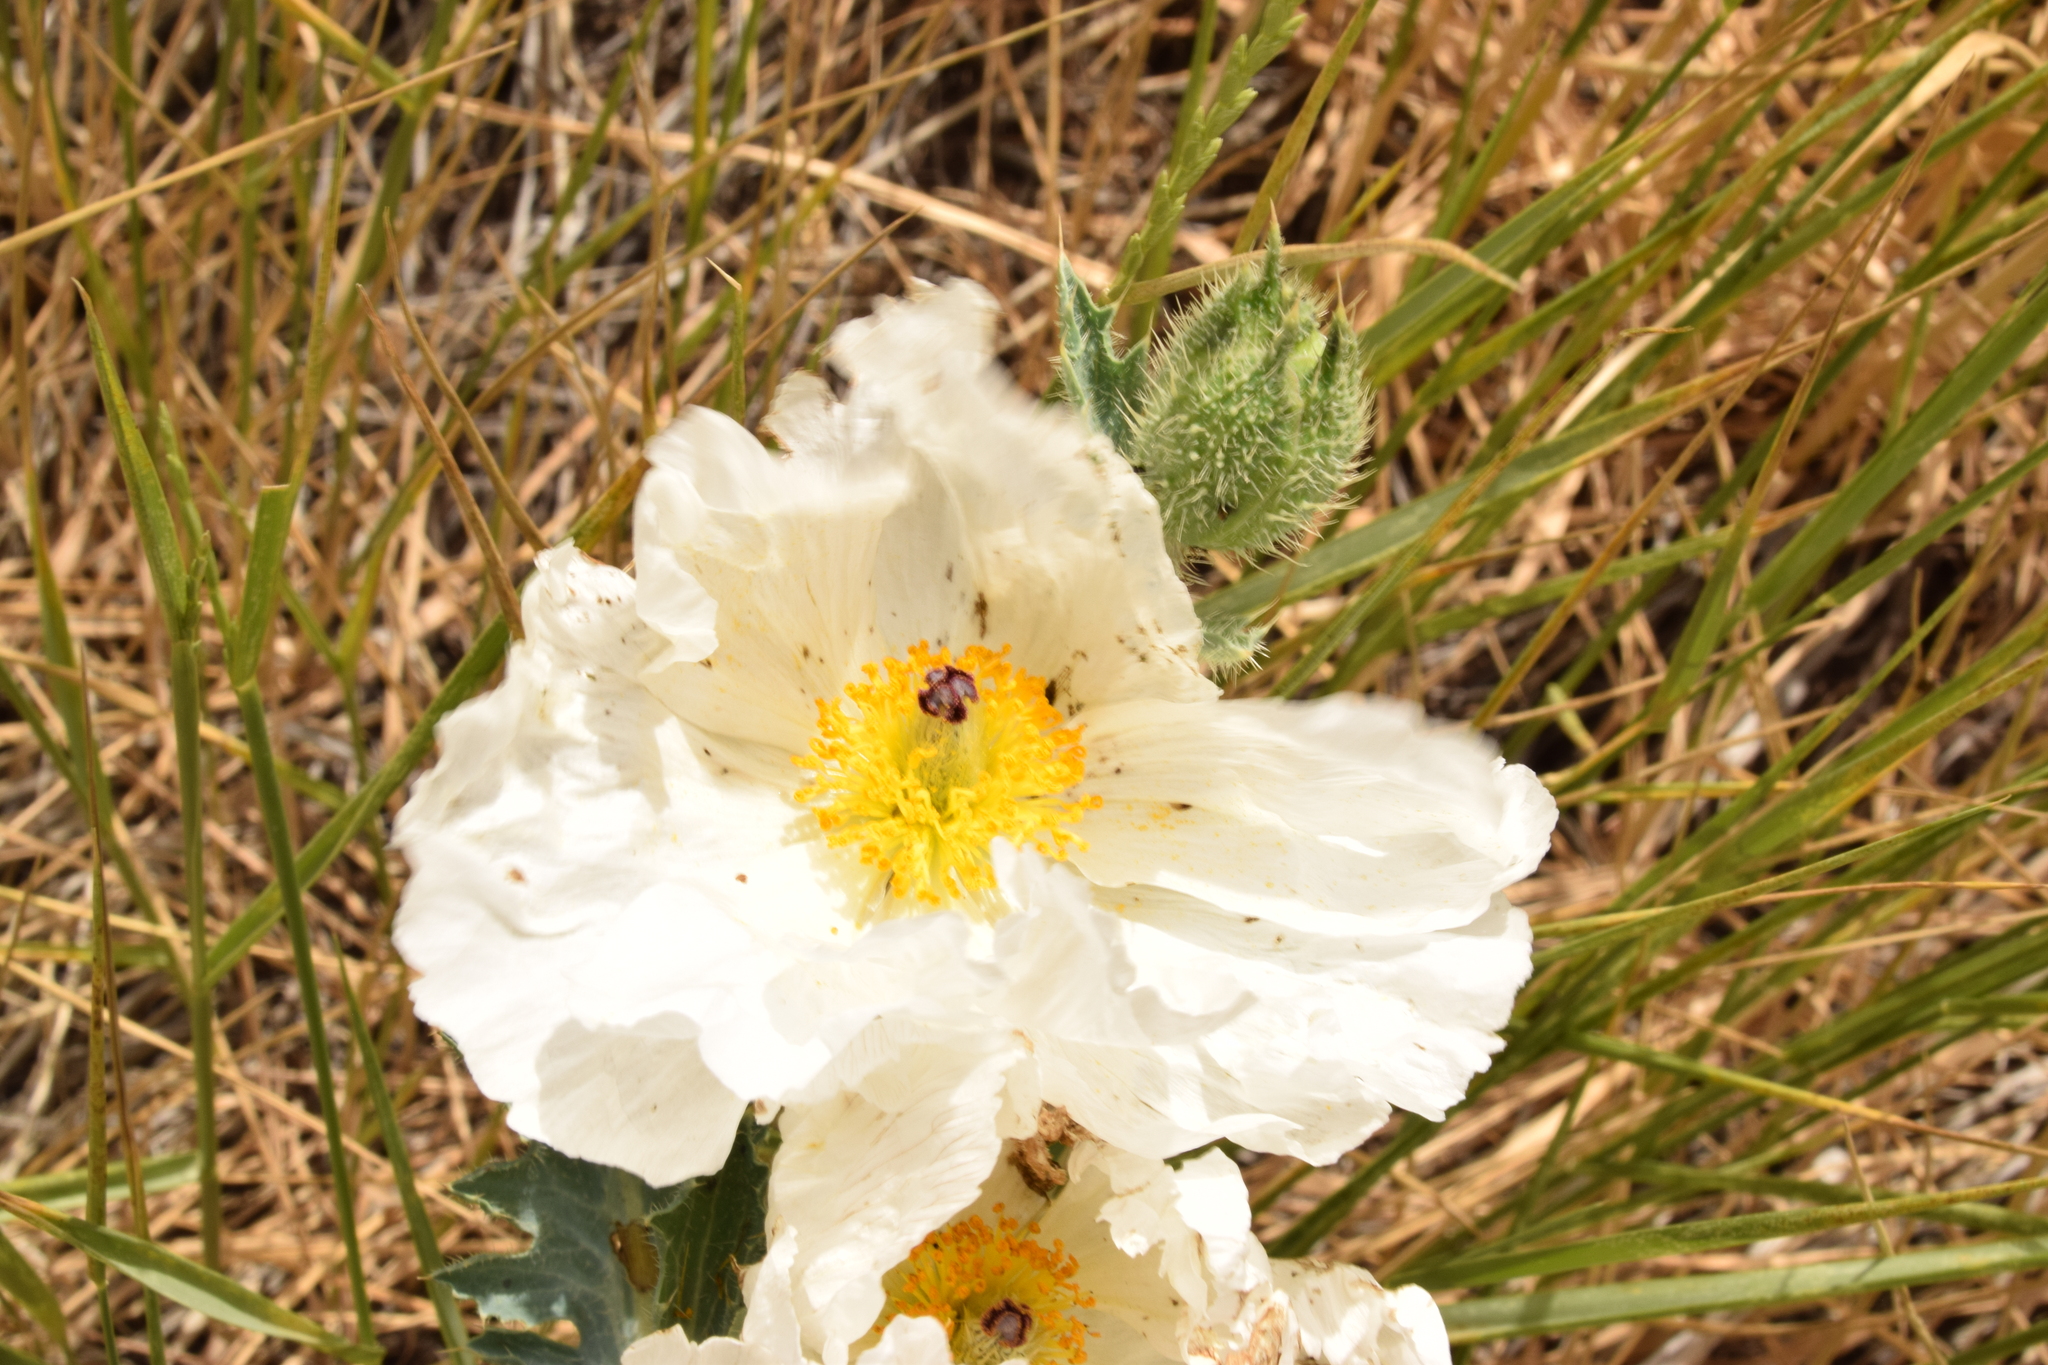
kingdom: Plantae
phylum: Tracheophyta
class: Magnoliopsida
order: Ranunculales
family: Papaveraceae
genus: Argemone
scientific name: Argemone munita
